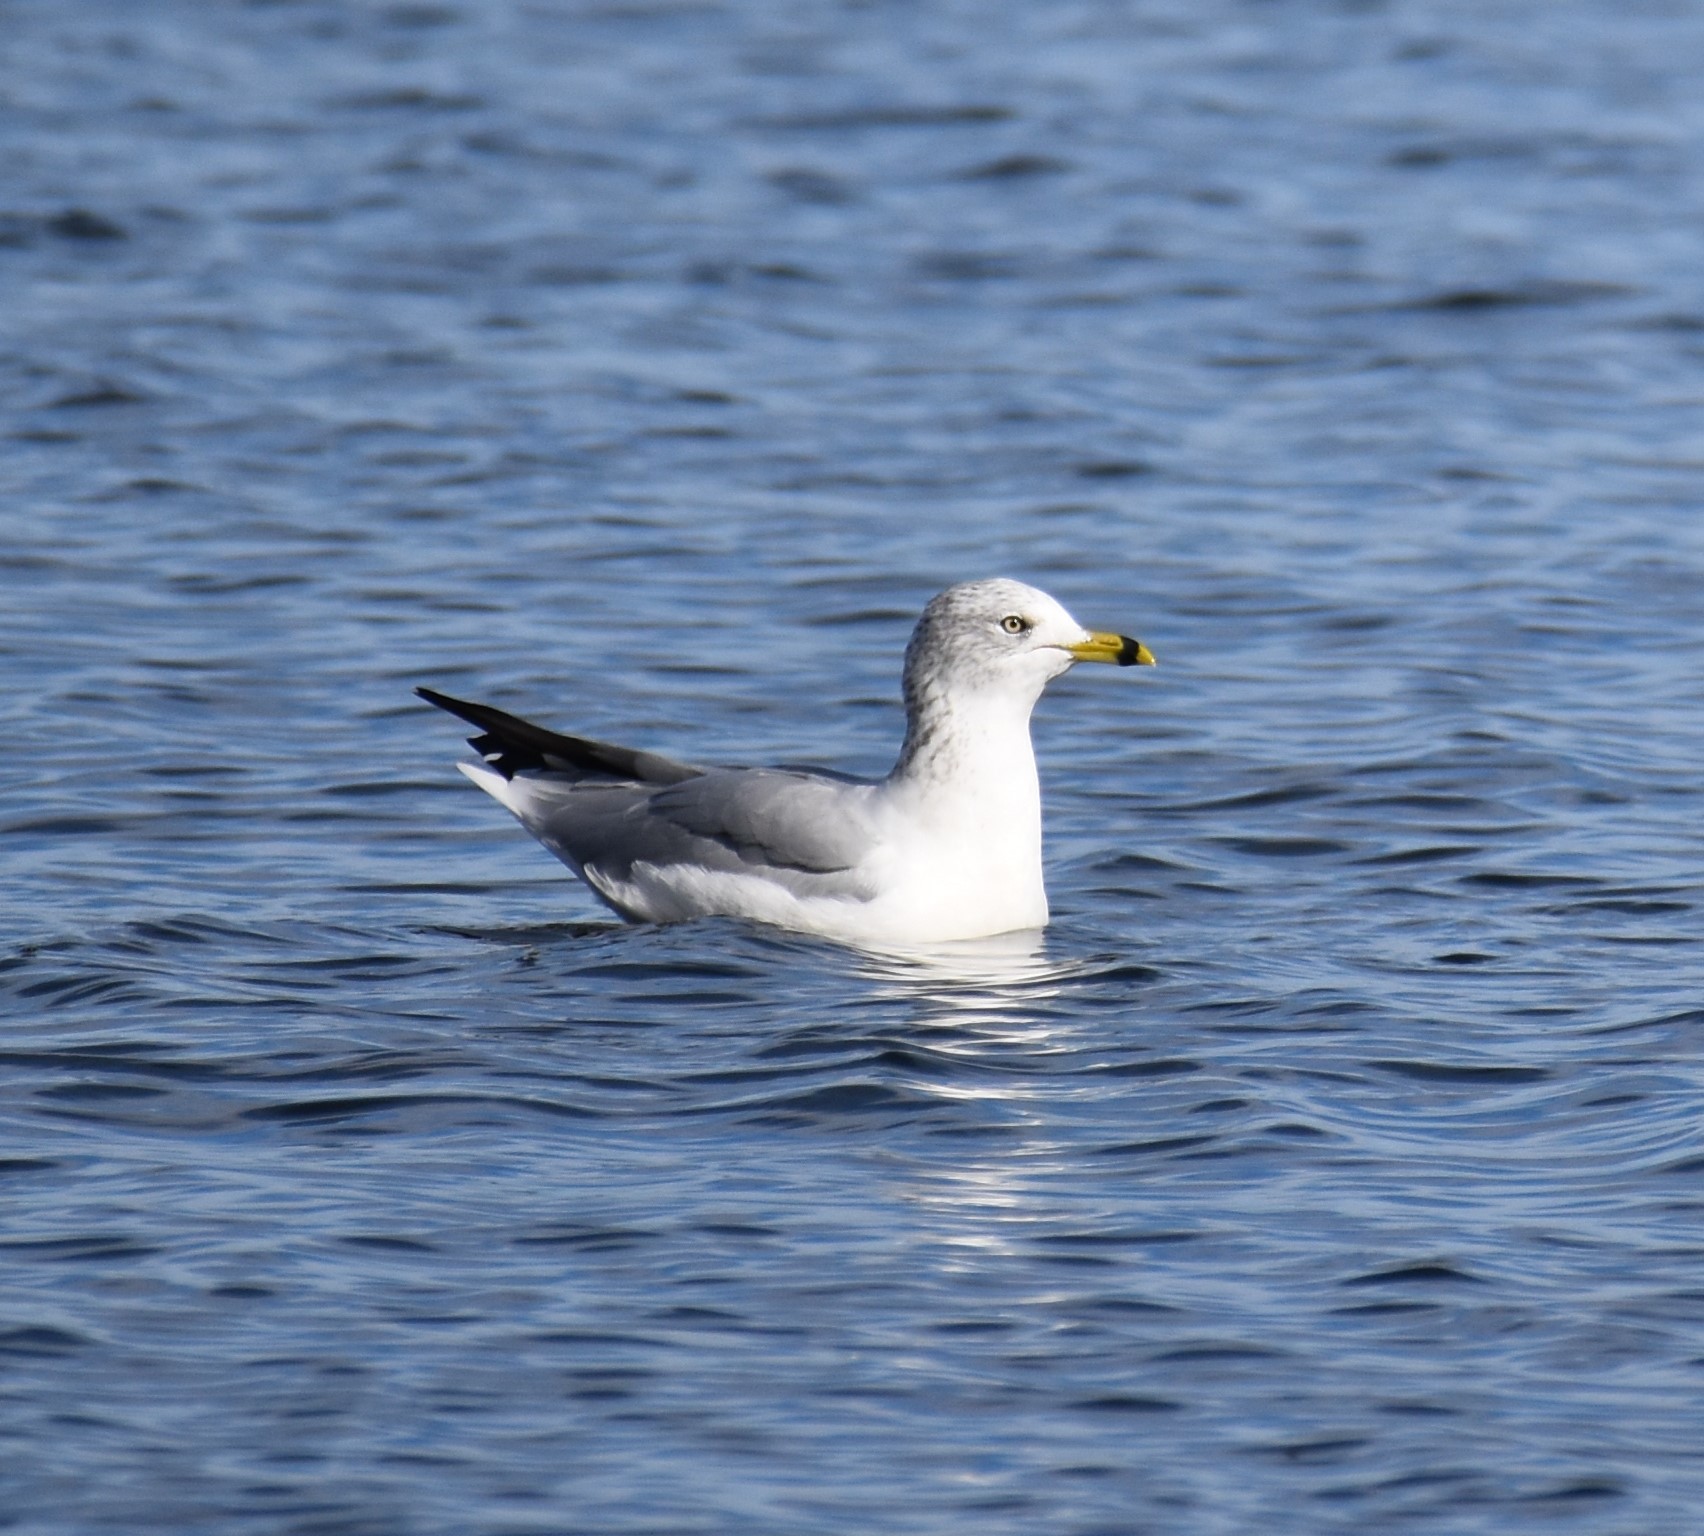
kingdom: Animalia
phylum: Chordata
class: Aves
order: Charadriiformes
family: Laridae
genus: Larus
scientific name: Larus delawarensis
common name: Ring-billed gull
